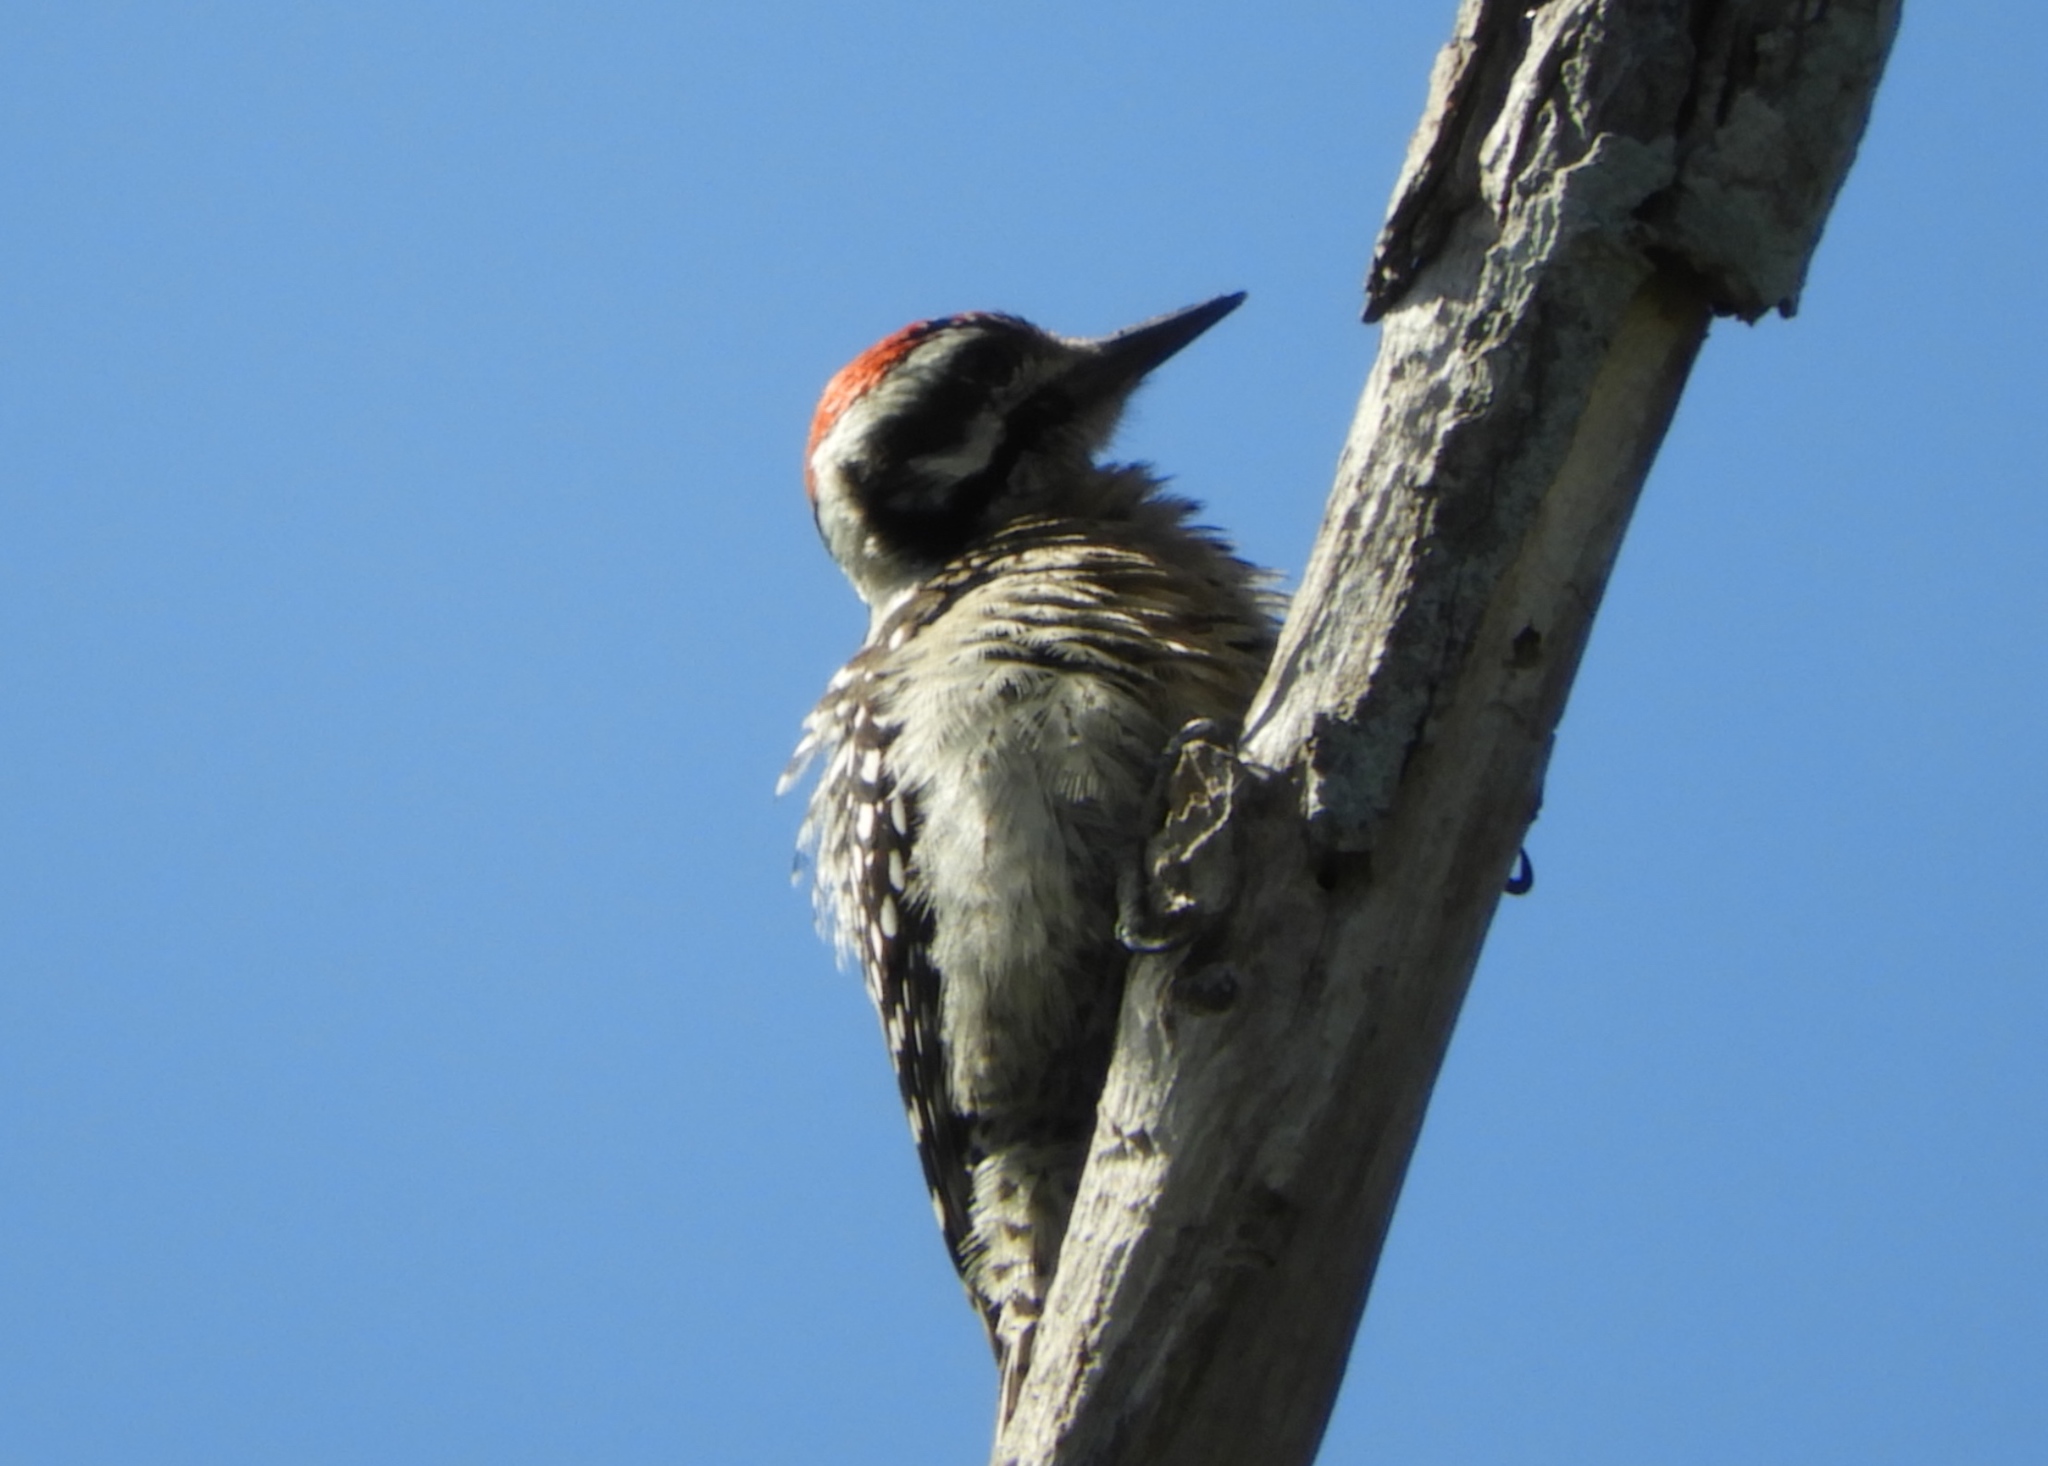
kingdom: Animalia
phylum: Chordata
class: Aves
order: Piciformes
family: Picidae
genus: Dryobates
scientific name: Dryobates scalaris
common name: Ladder-backed woodpecker
